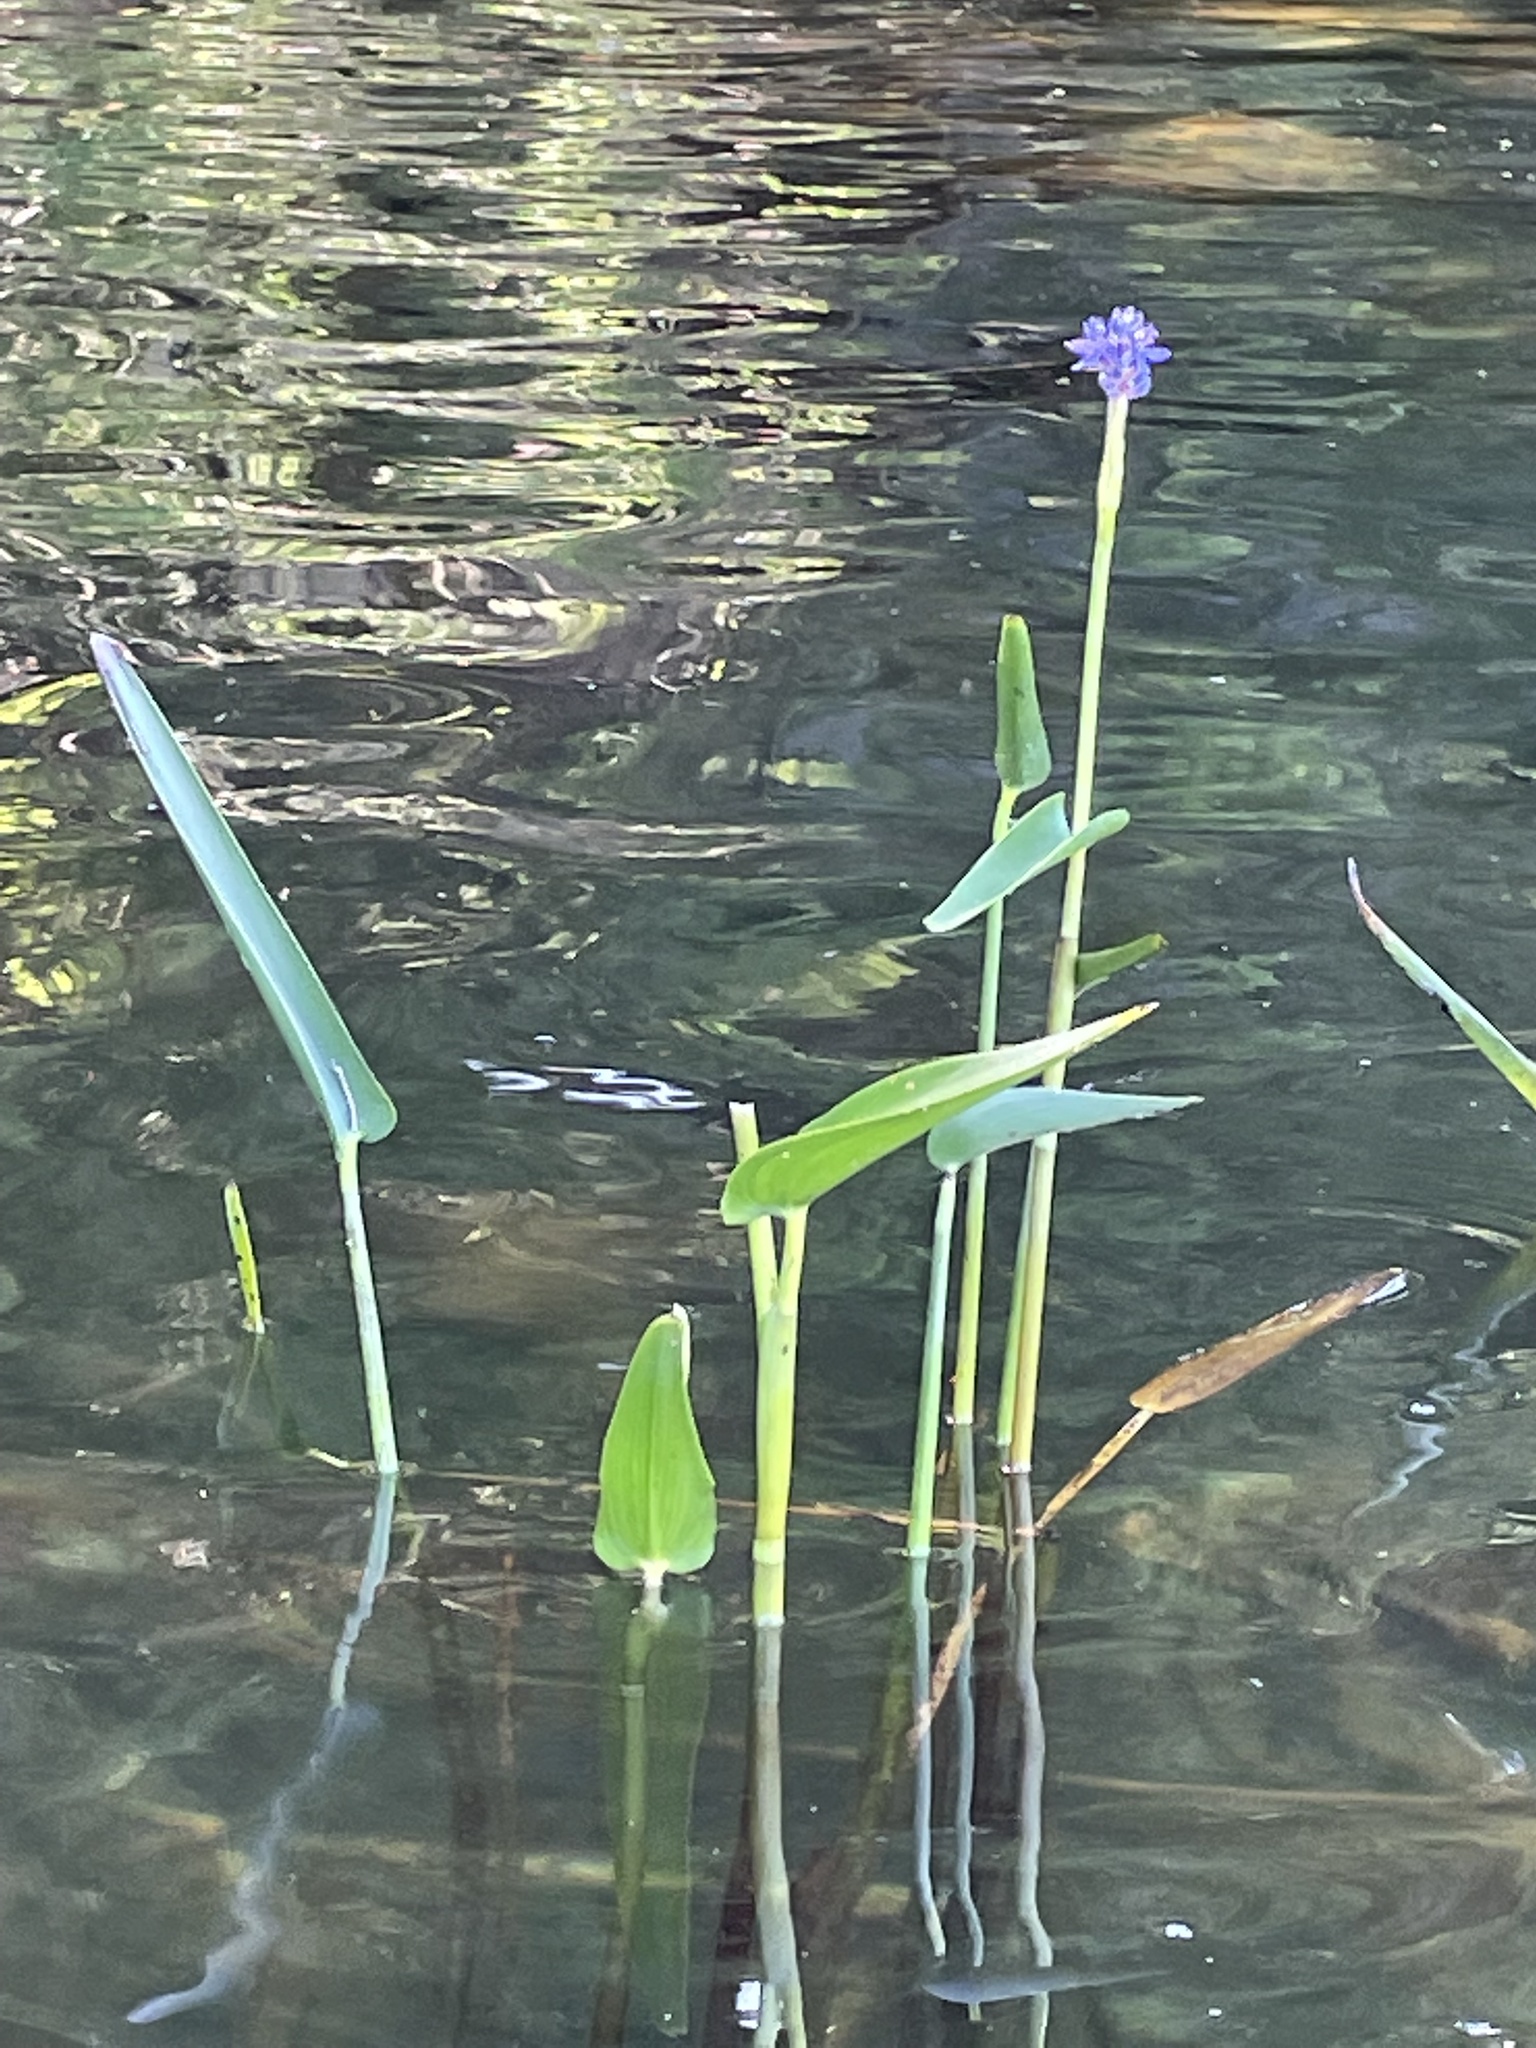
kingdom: Plantae
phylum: Tracheophyta
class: Liliopsida
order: Commelinales
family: Pontederiaceae
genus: Pontederia
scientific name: Pontederia cordata
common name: Pickerelweed
